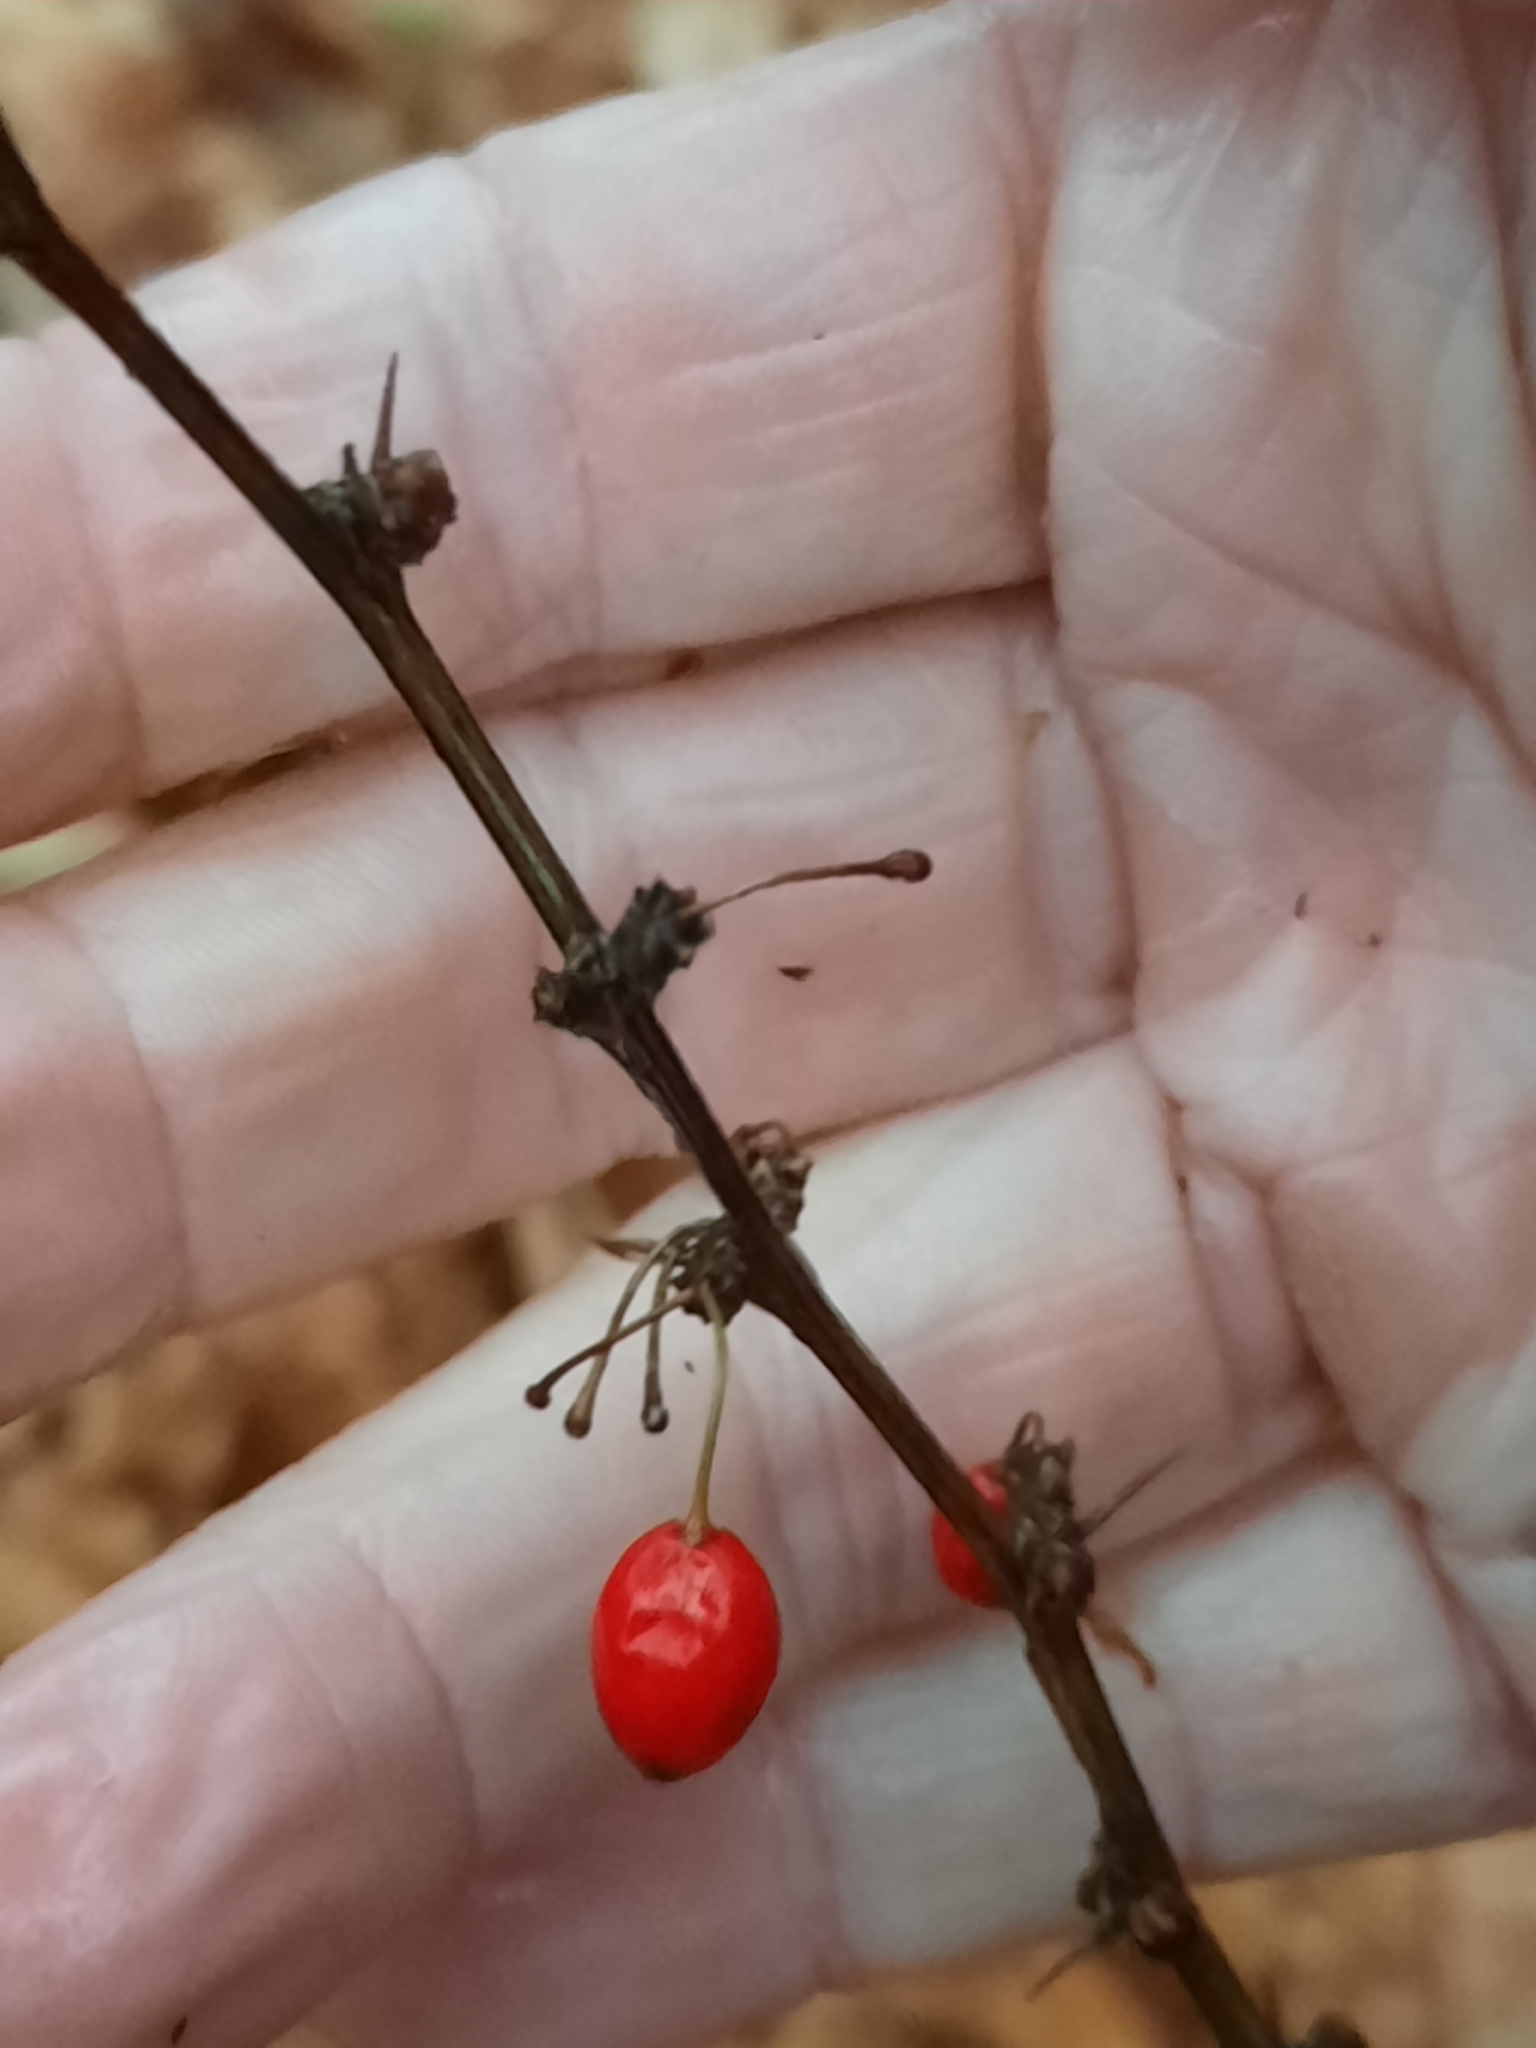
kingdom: Plantae
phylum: Tracheophyta
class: Magnoliopsida
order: Ranunculales
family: Berberidaceae
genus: Berberis
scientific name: Berberis thunbergii
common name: Japanese barberry
